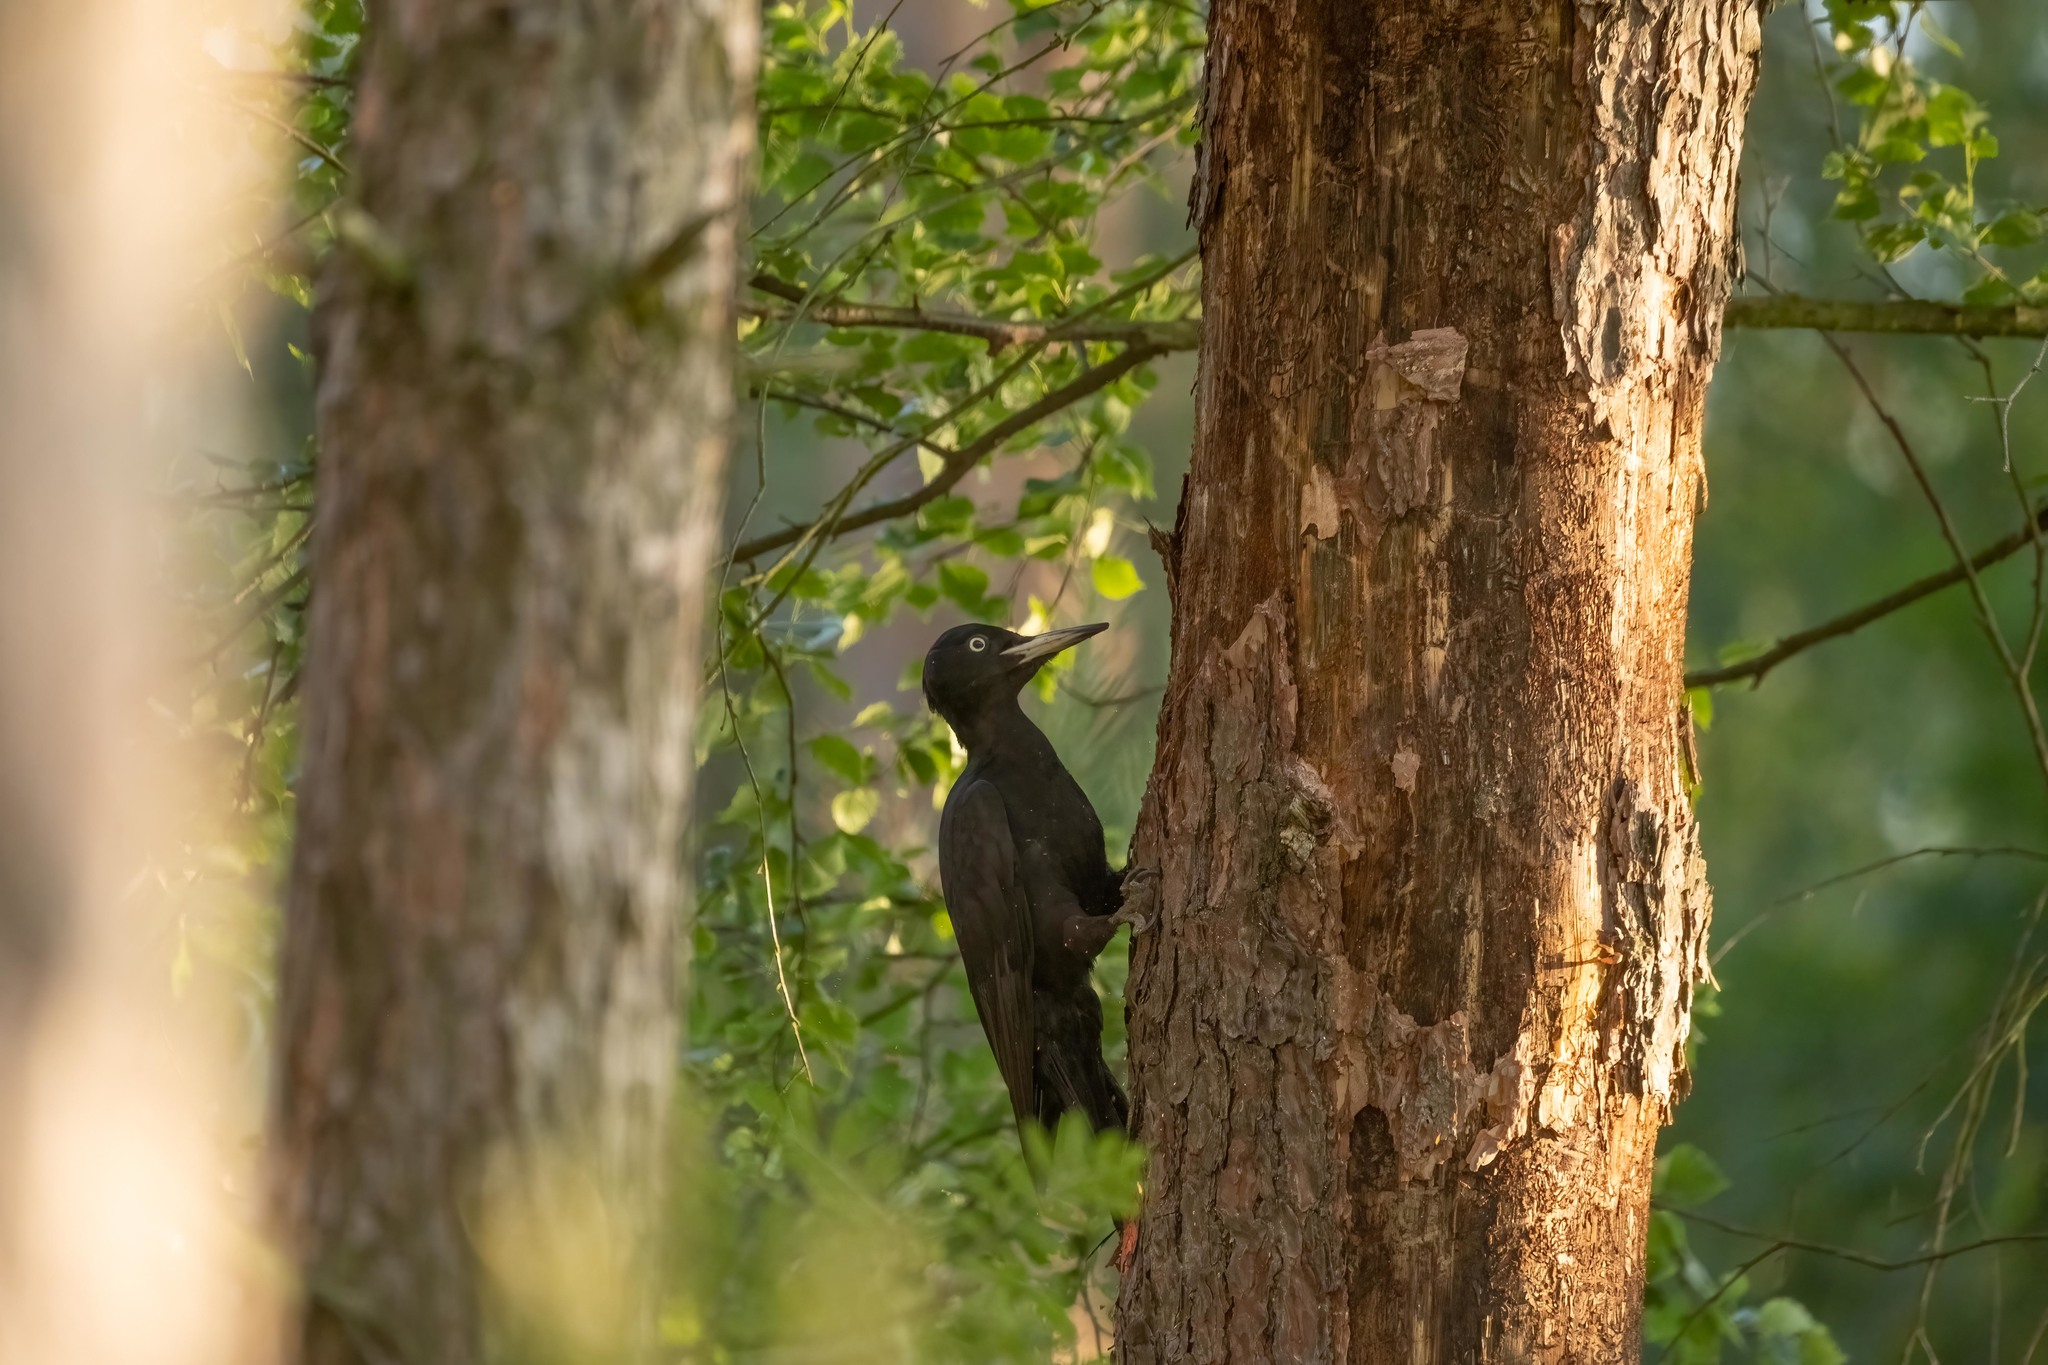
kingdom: Animalia
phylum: Chordata
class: Aves
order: Piciformes
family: Picidae
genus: Dryocopus
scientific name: Dryocopus martius
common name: Black woodpecker
